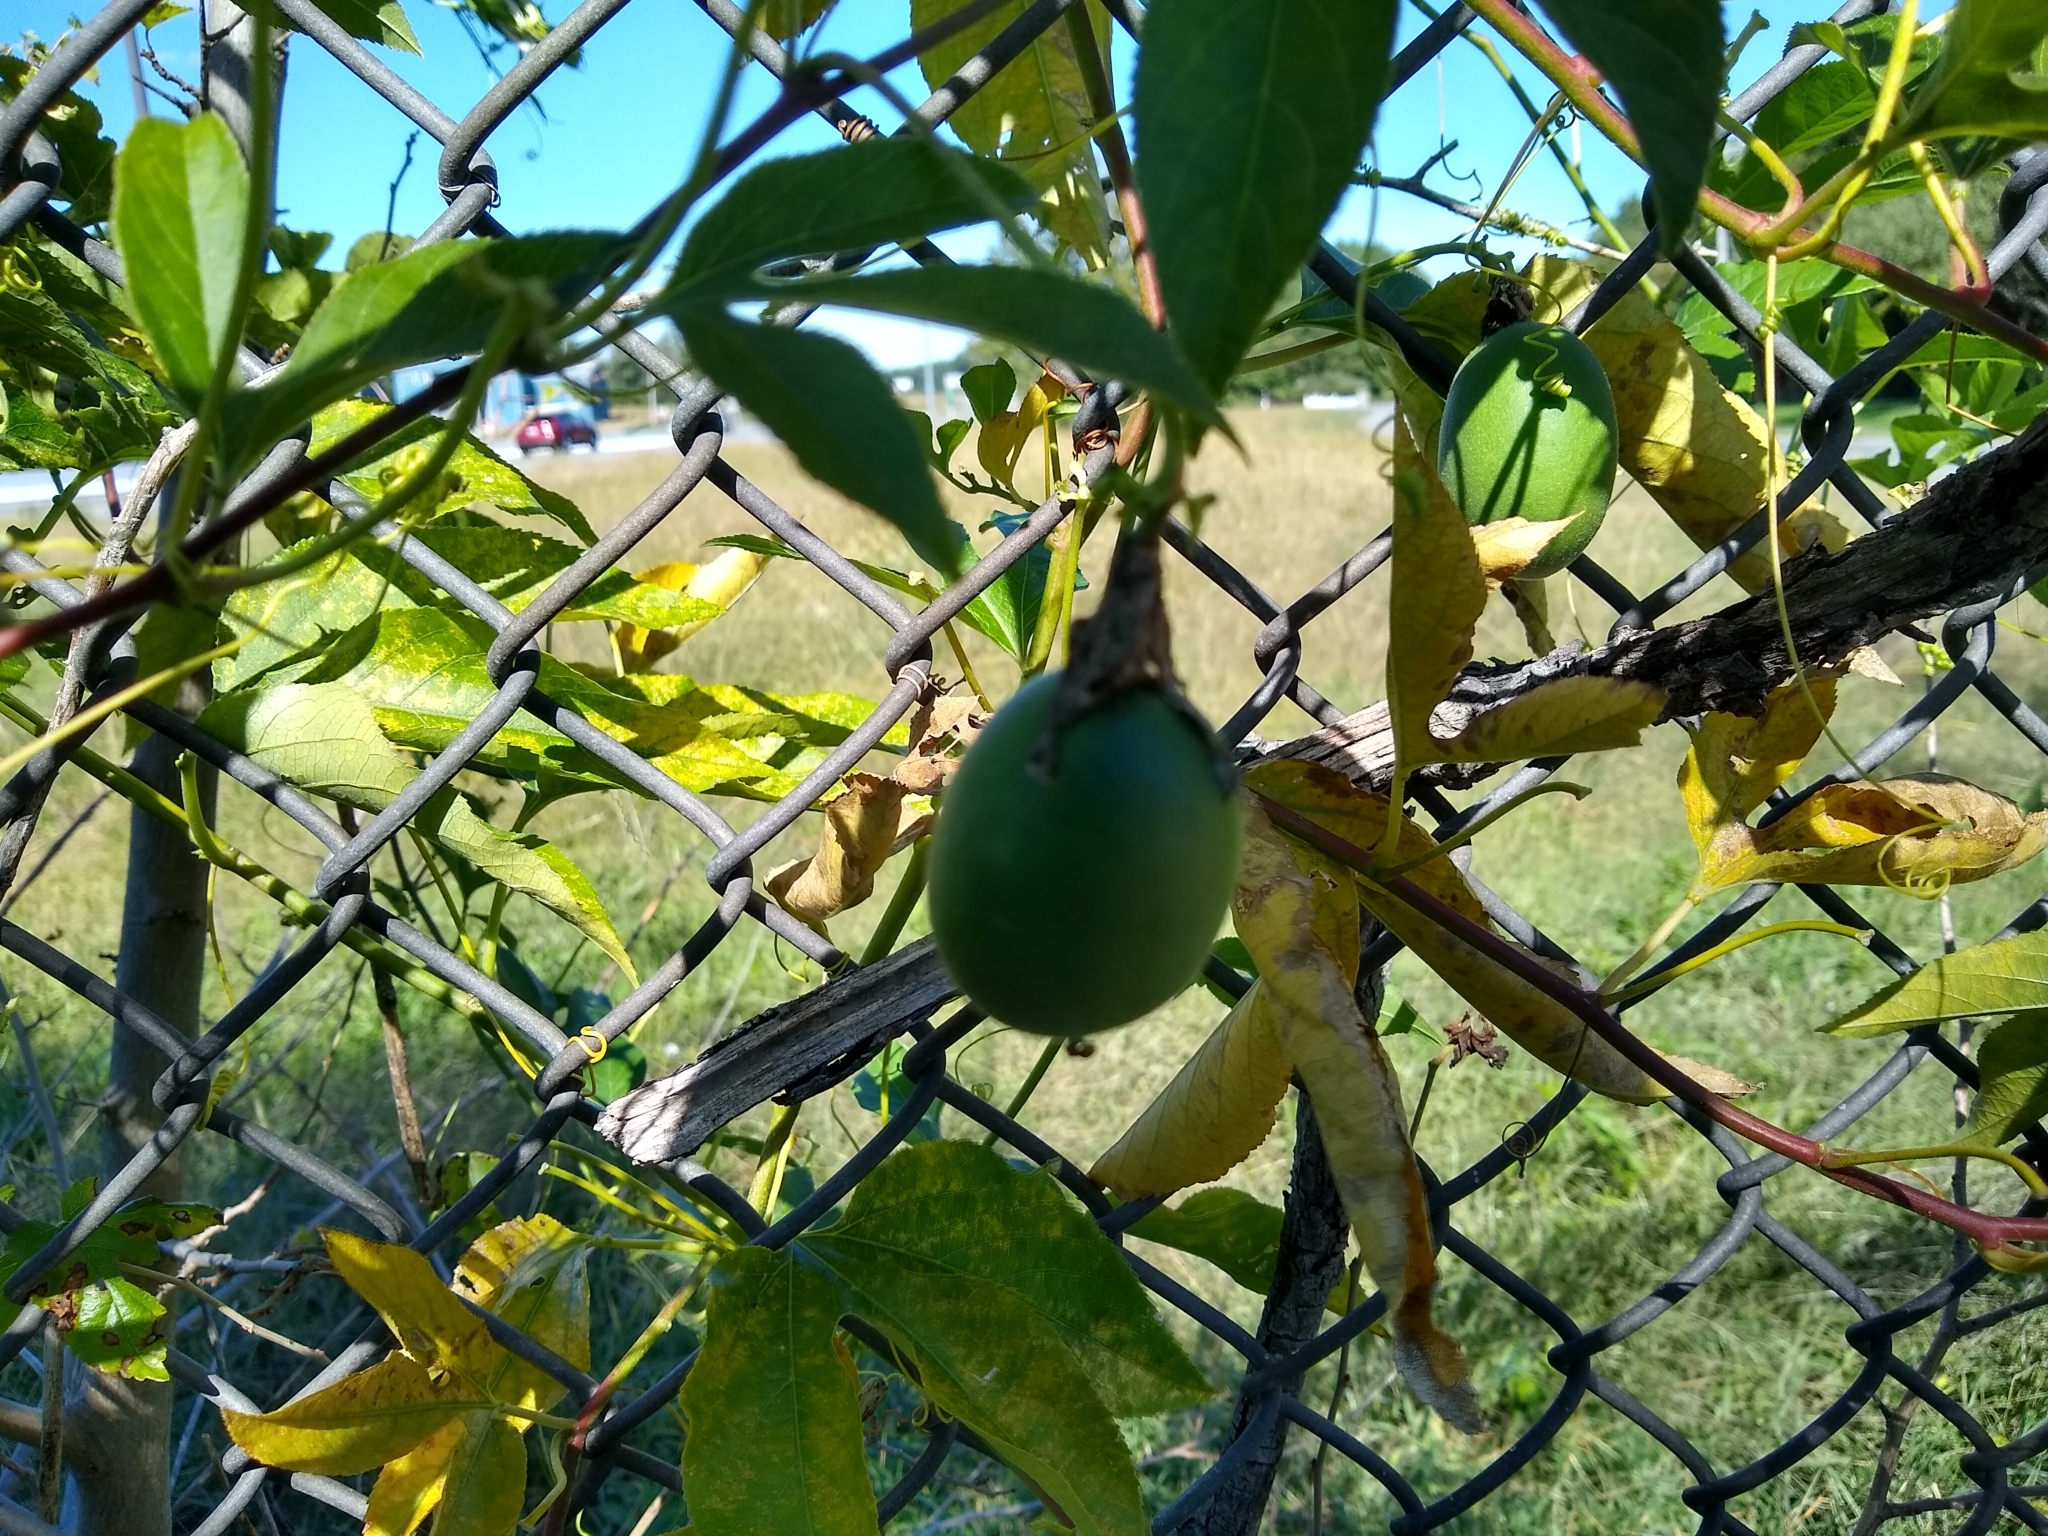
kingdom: Plantae
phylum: Tracheophyta
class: Magnoliopsida
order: Malpighiales
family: Passifloraceae
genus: Passiflora
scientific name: Passiflora incarnata
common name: Apricot-vine
